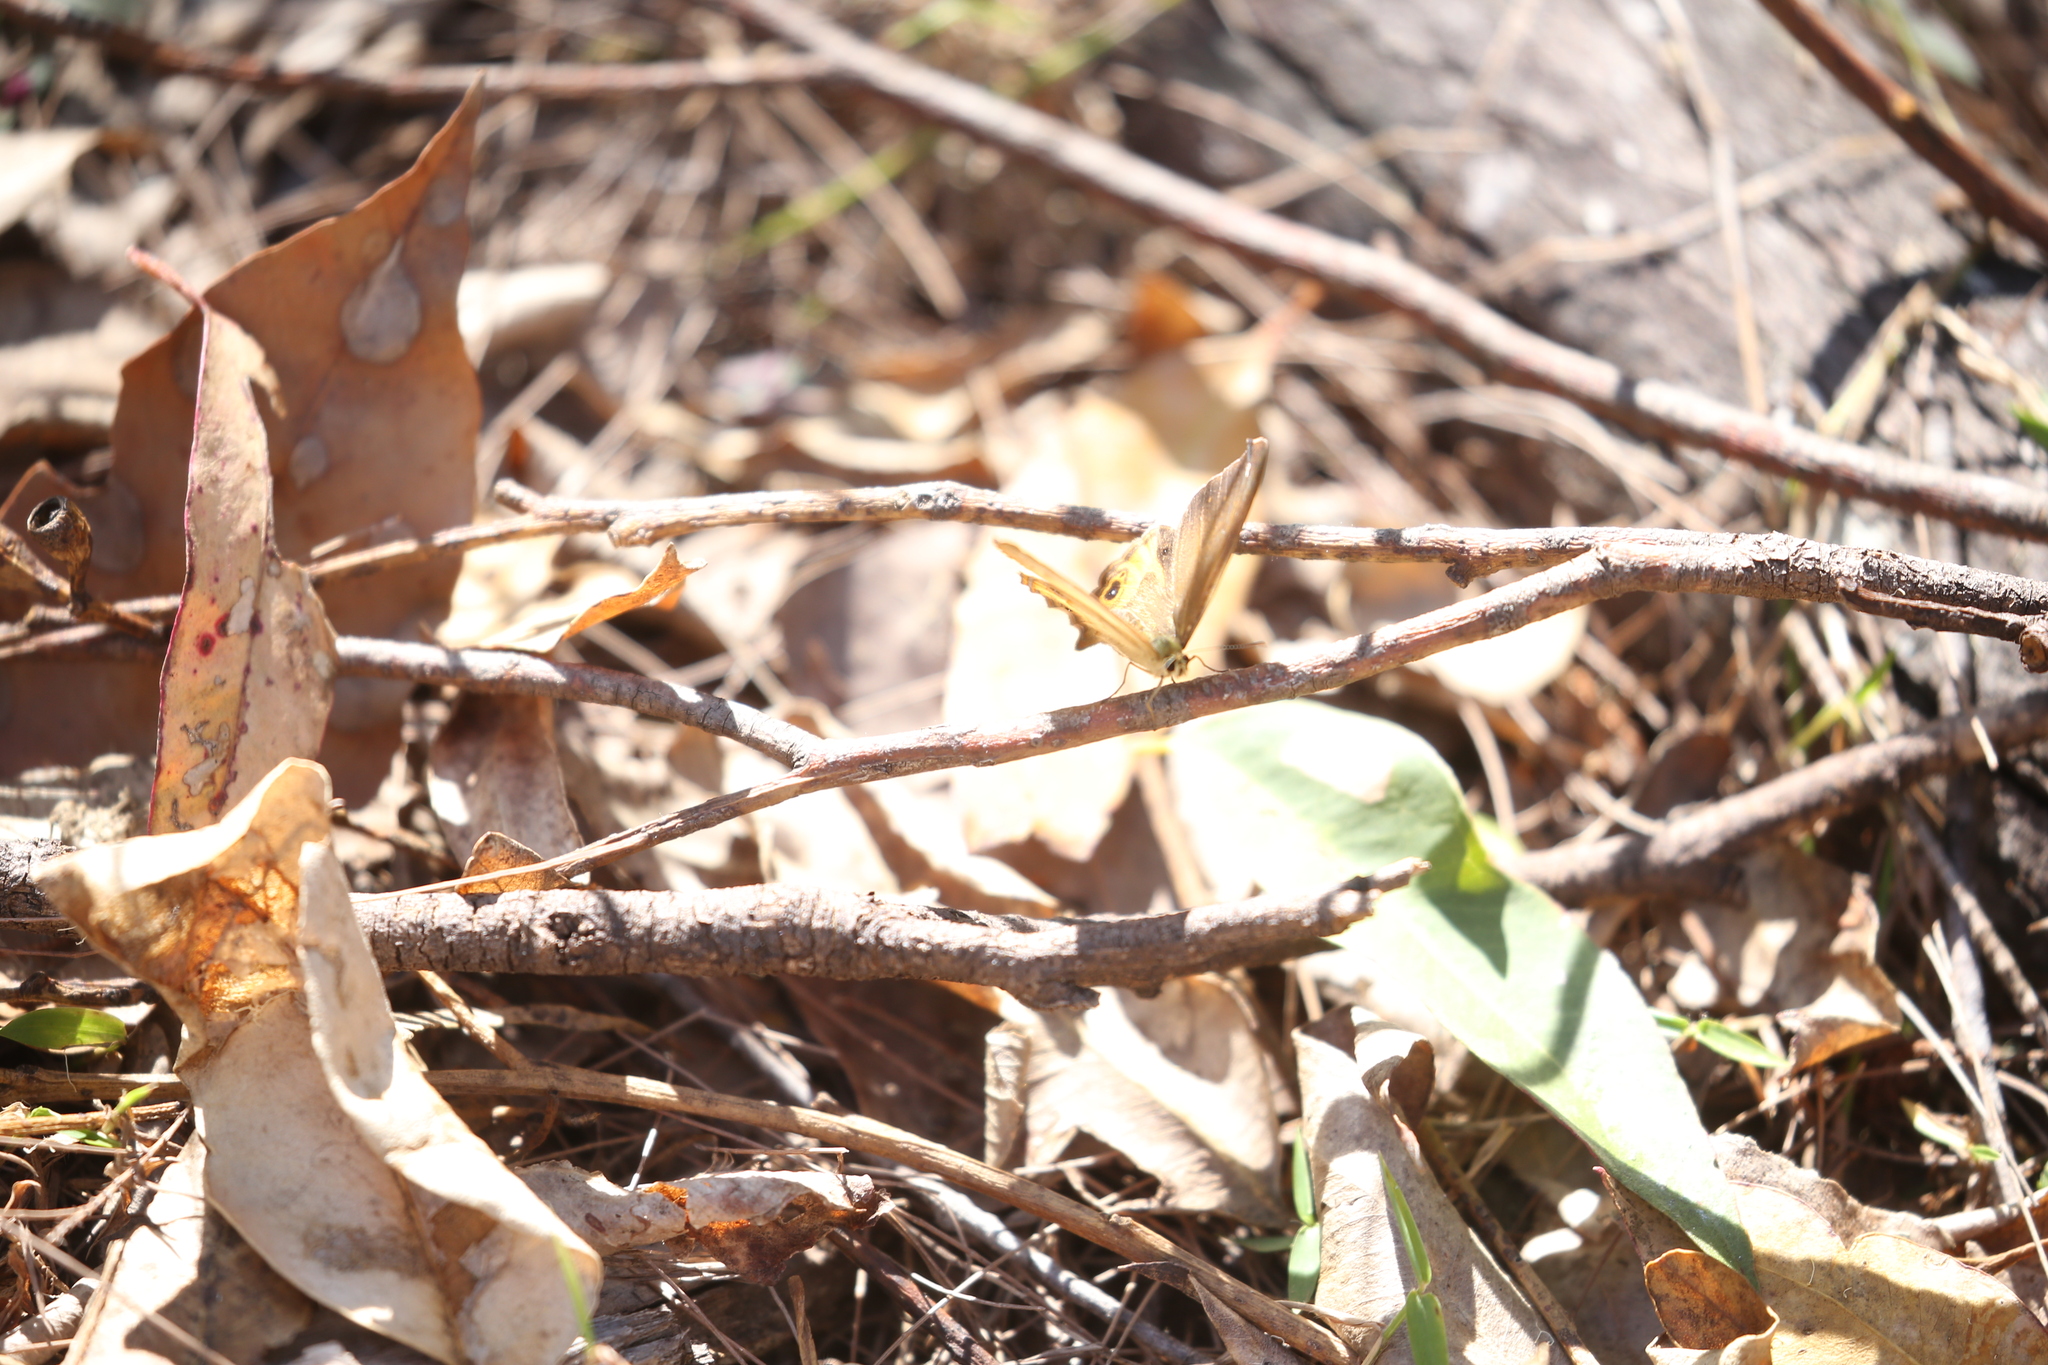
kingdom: Animalia
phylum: Arthropoda
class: Insecta
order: Lepidoptera
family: Nymphalidae
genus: Hypocysta
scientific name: Hypocysta metirius
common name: Brown ringlet
